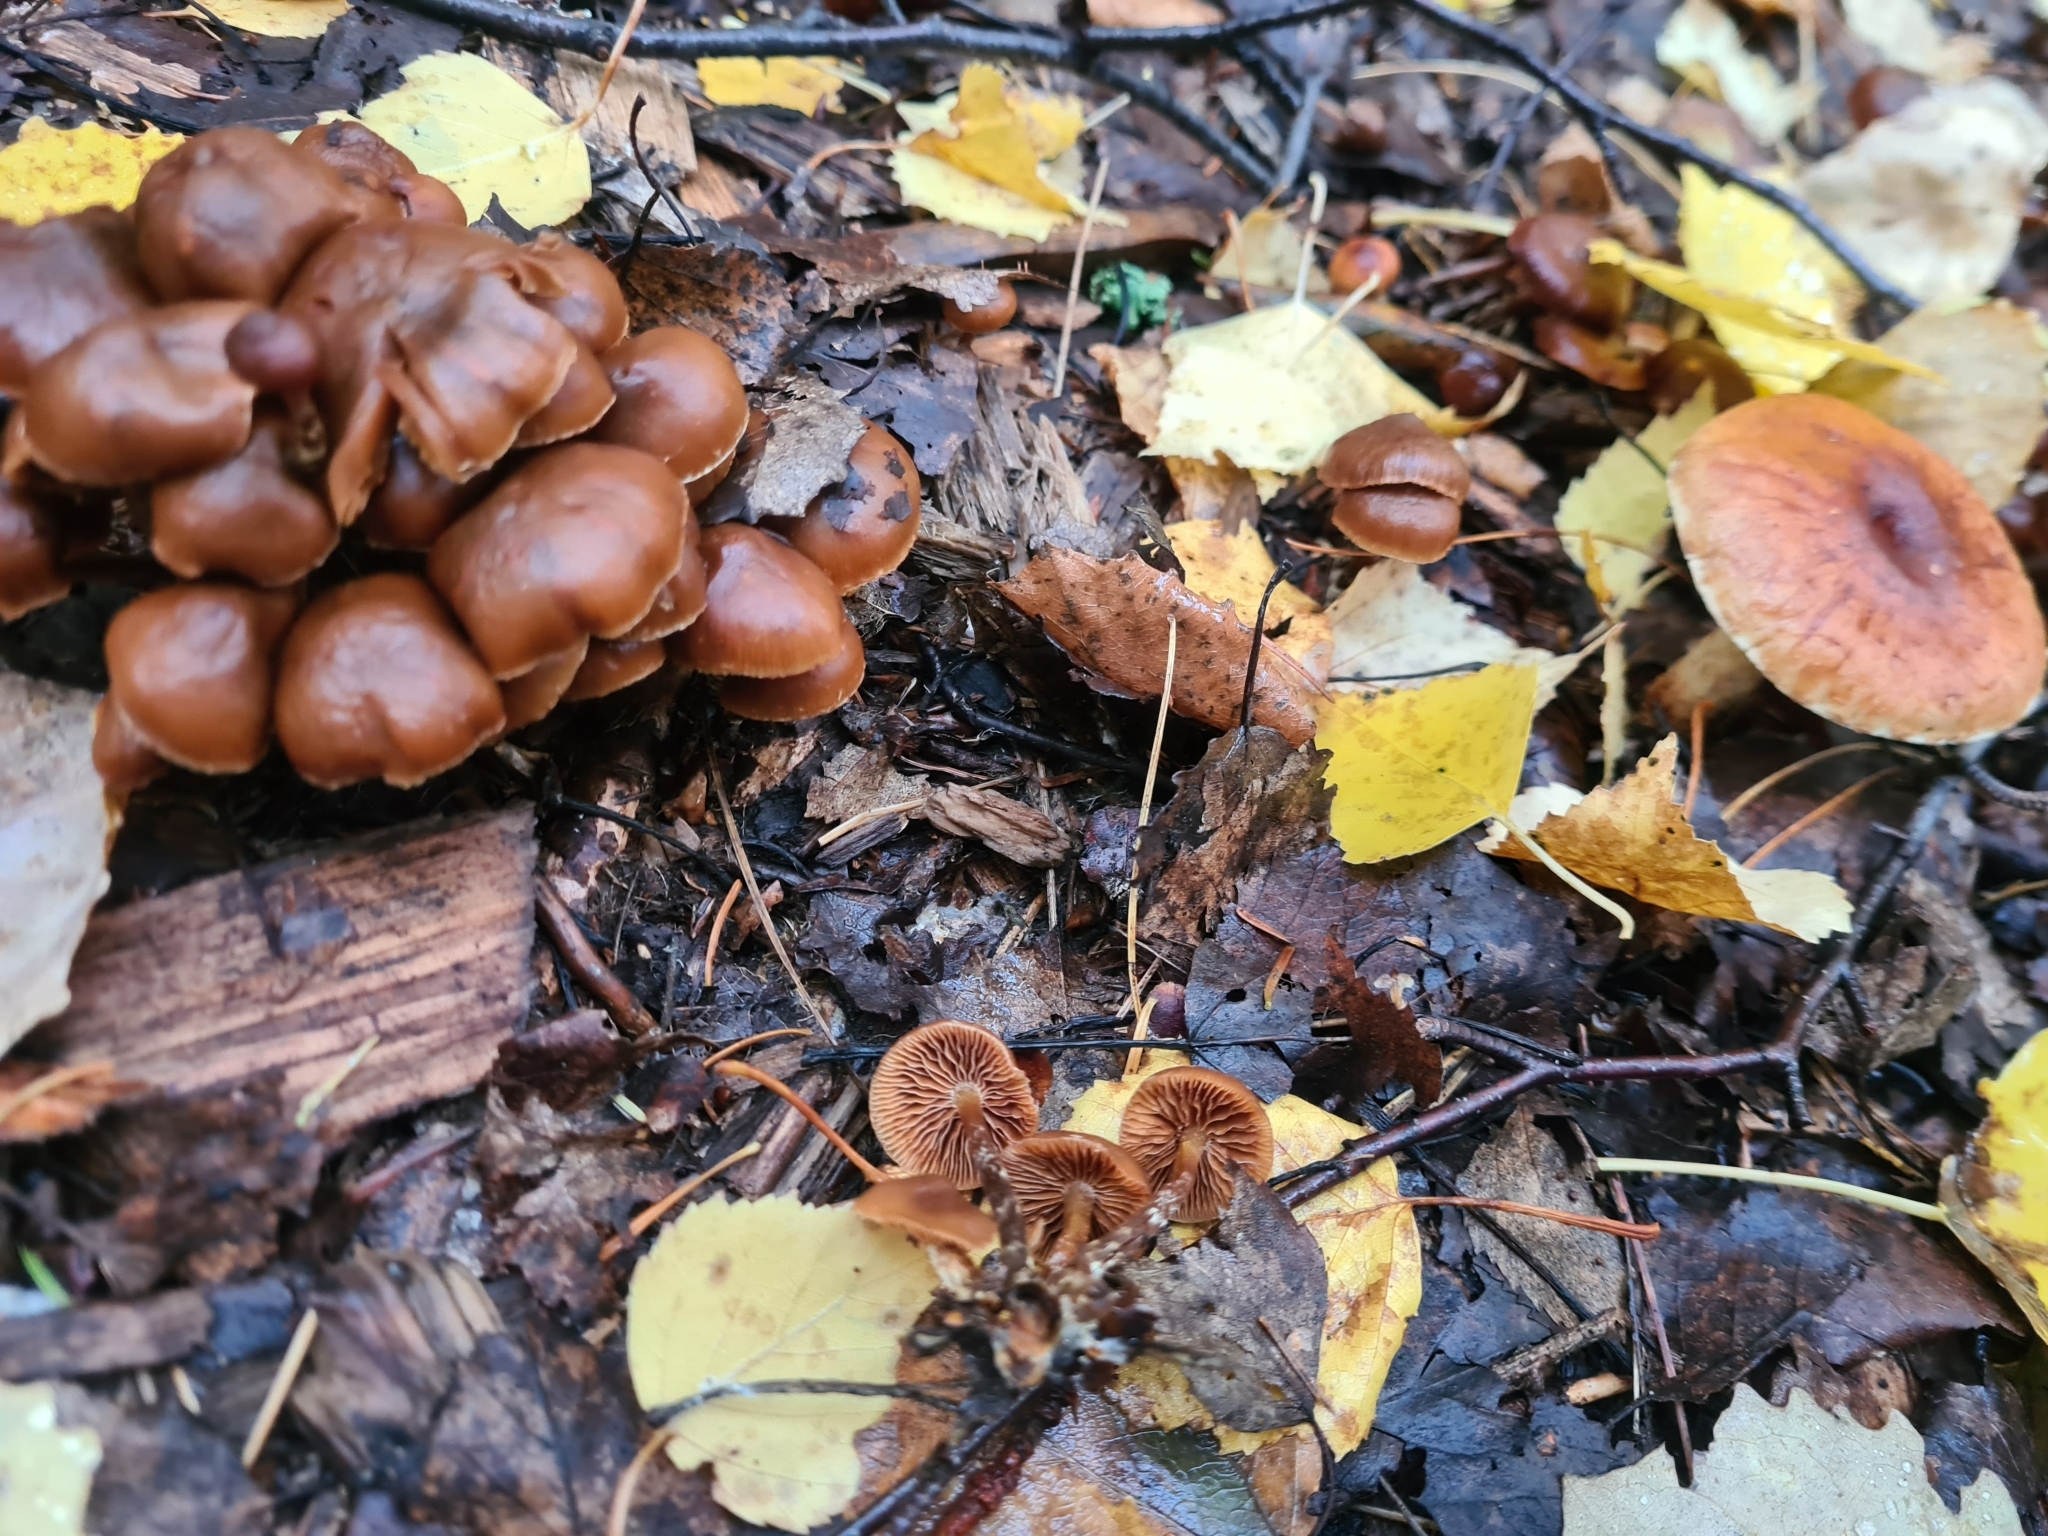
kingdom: Fungi
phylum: Basidiomycota
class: Agaricomycetes
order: Agaricales
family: Strophariaceae
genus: Pholiota
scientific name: Pholiota lignicola
